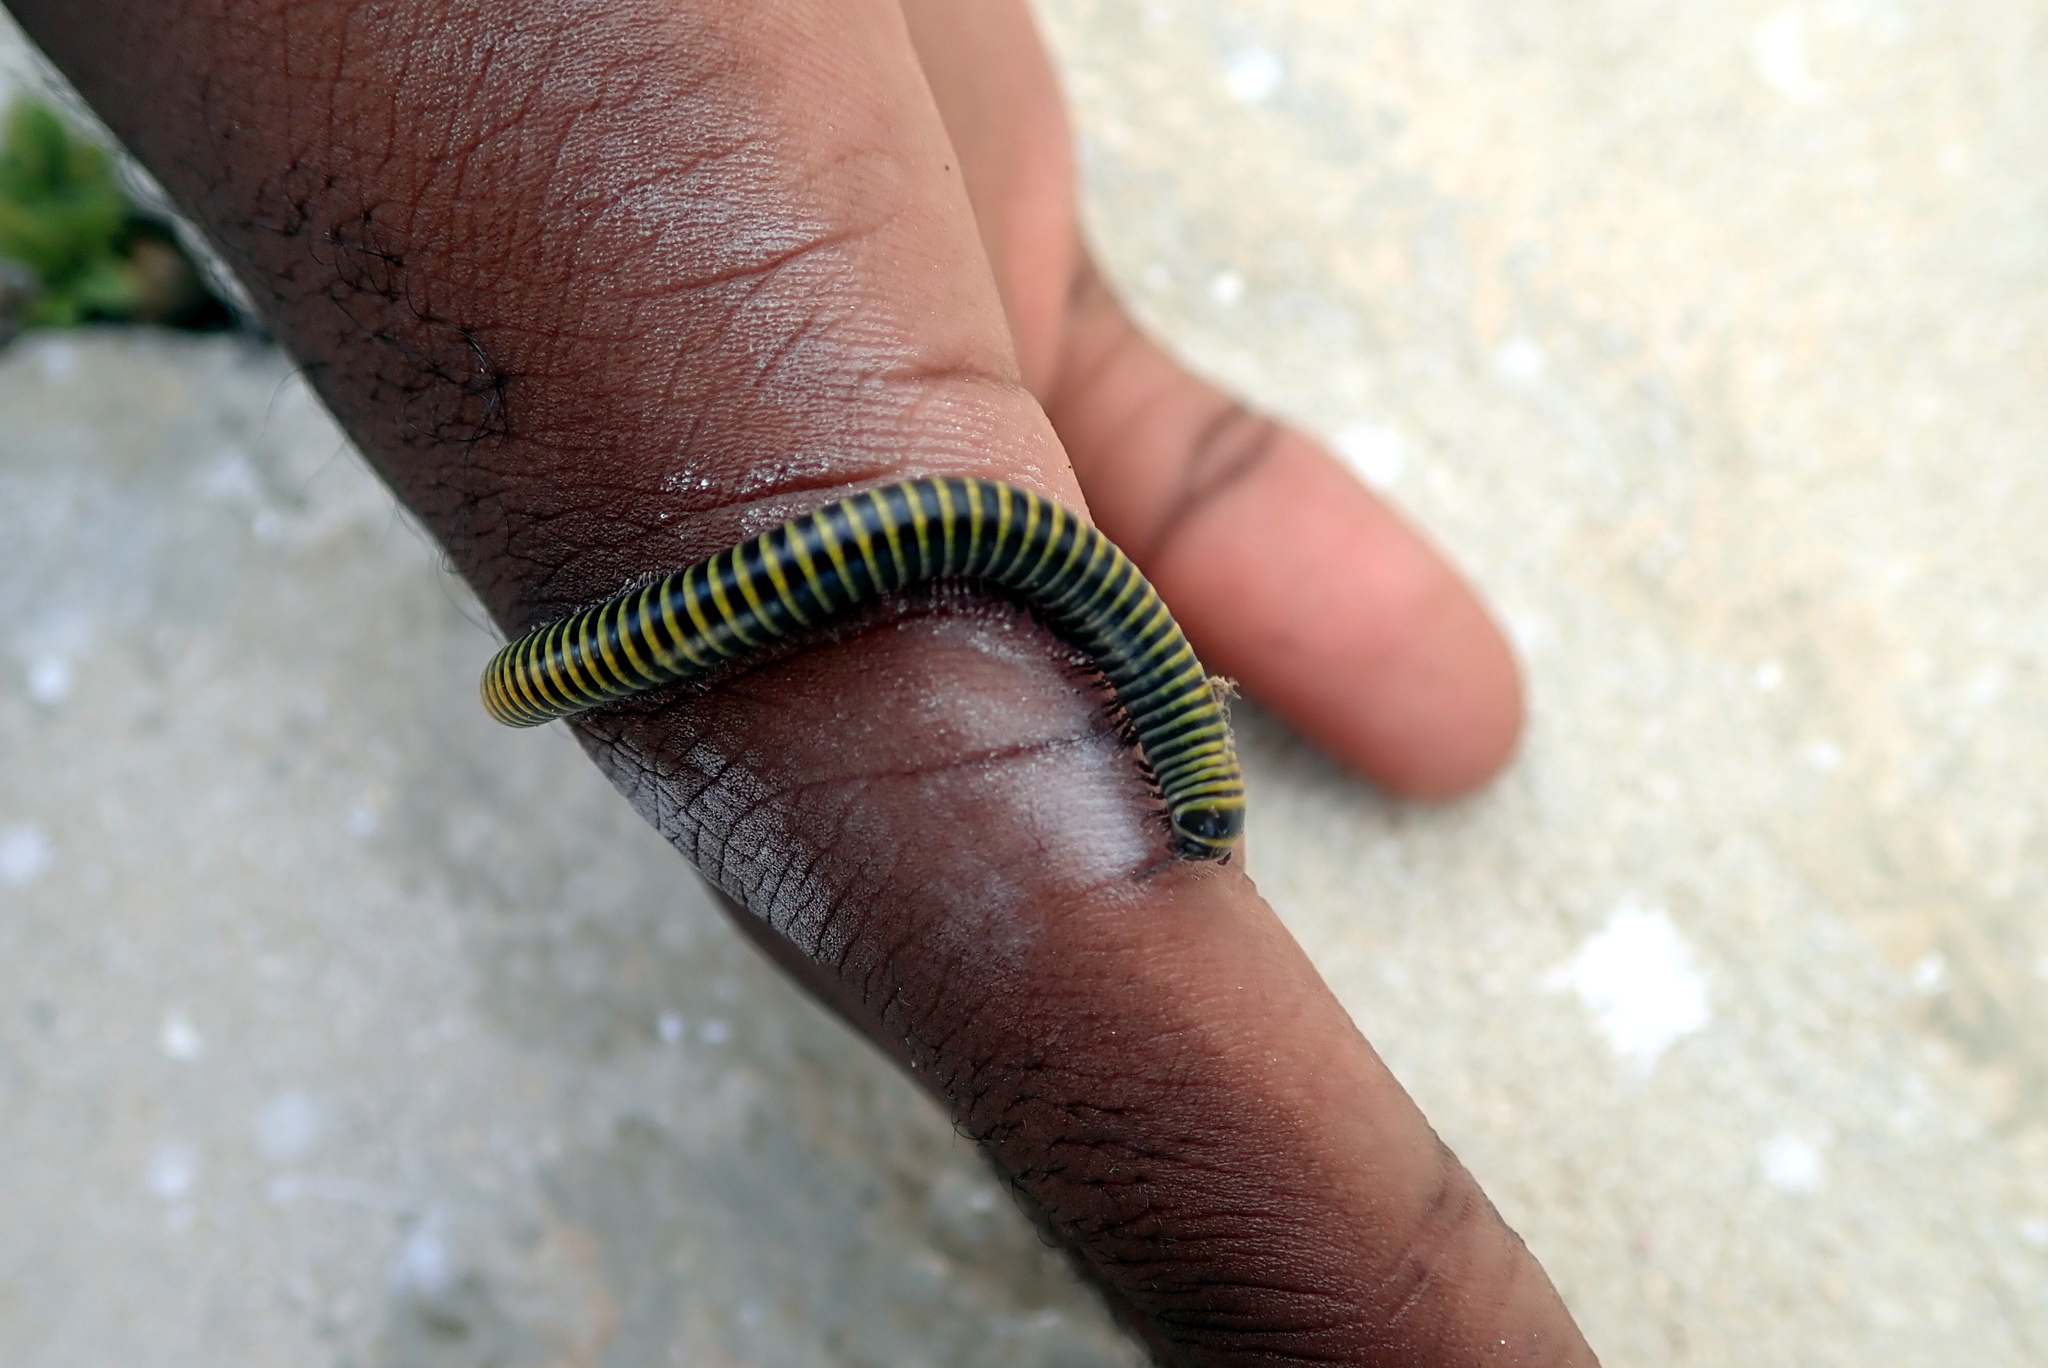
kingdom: Animalia
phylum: Arthropoda
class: Diplopoda
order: Spirobolida
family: Rhinocricidae
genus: Anadenobolus
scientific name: Anadenobolus monilicornis
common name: Caribbean millipede
